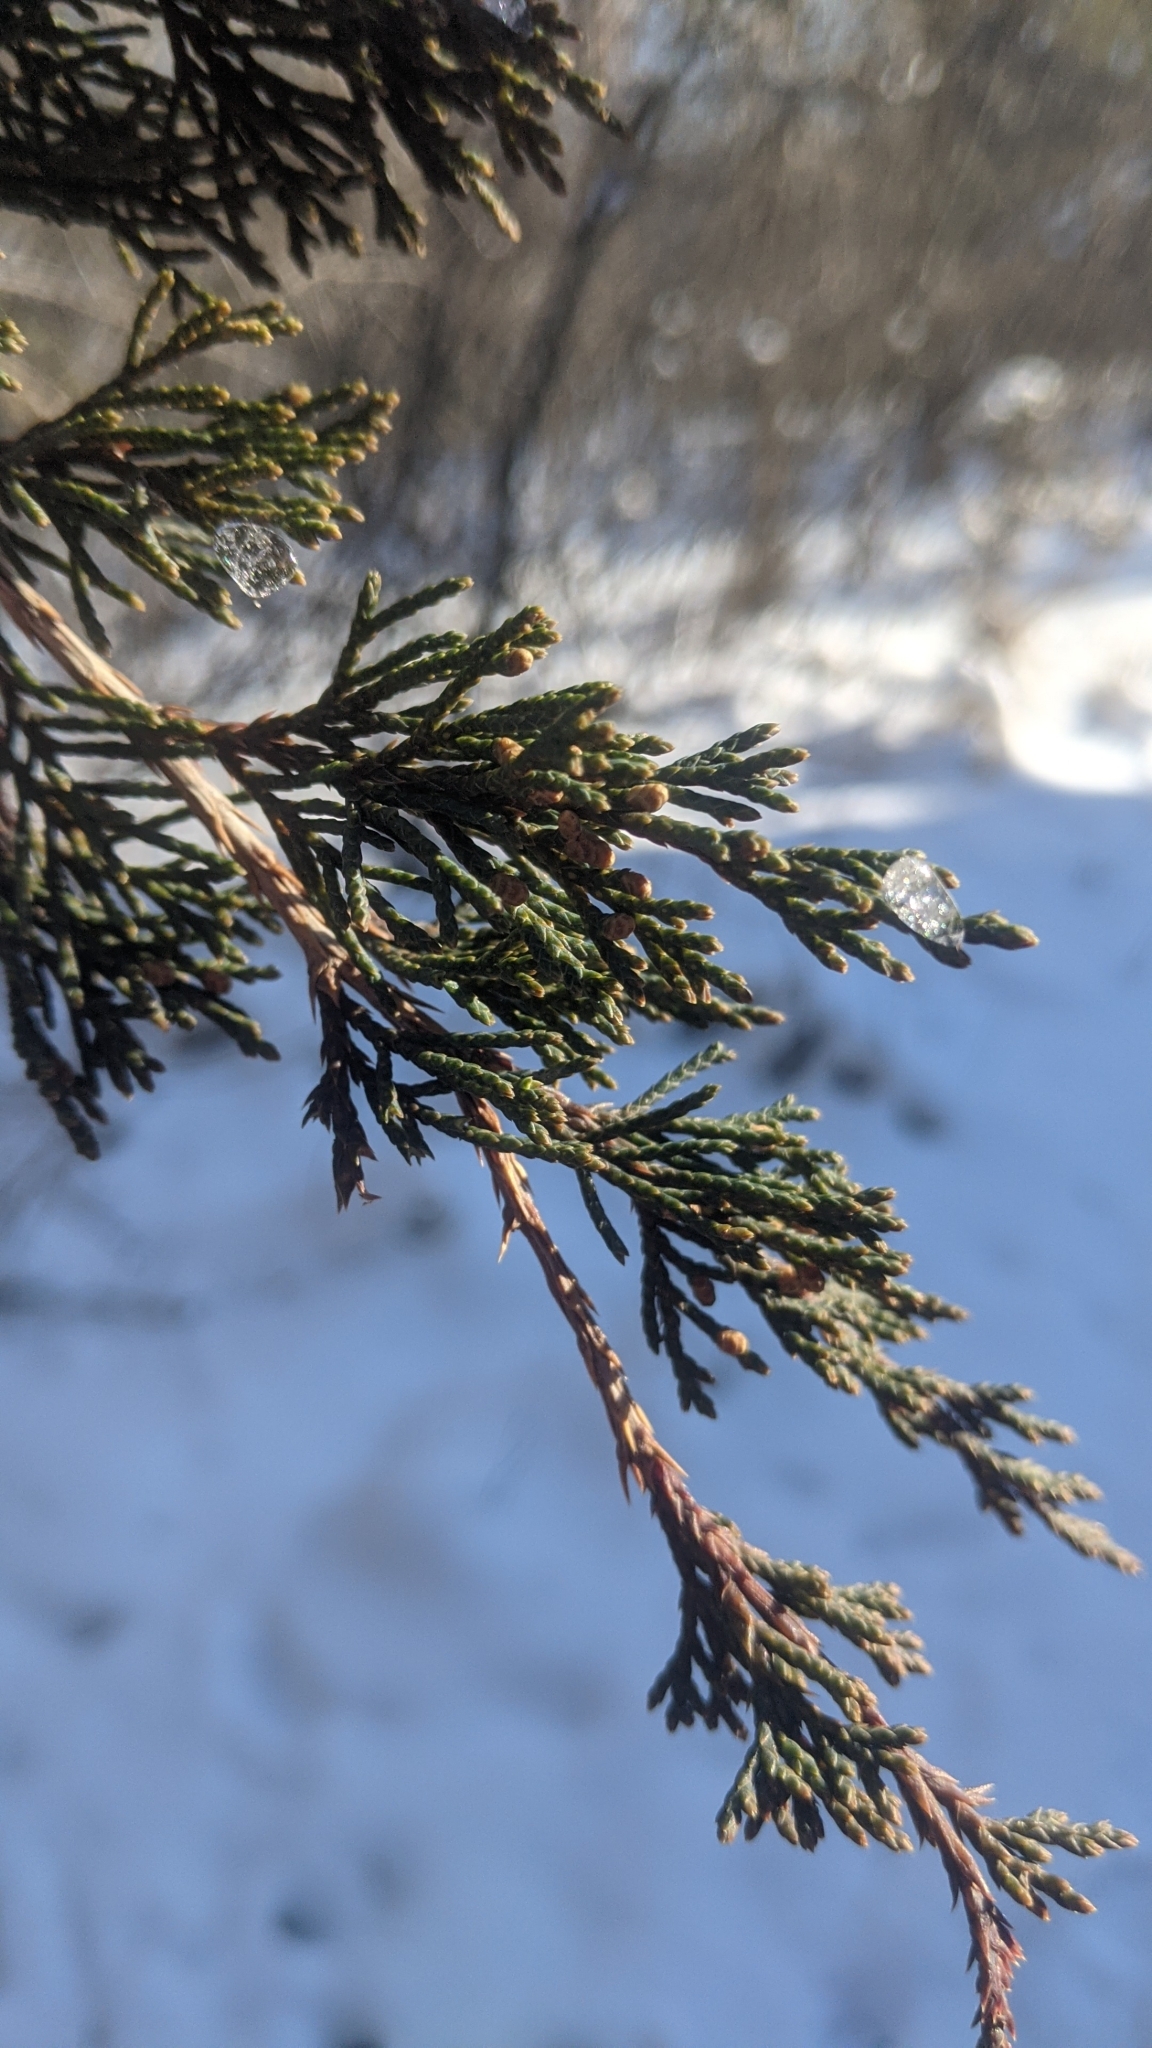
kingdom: Plantae
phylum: Tracheophyta
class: Pinopsida
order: Pinales
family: Cupressaceae
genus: Juniperus
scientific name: Juniperus virginiana
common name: Red juniper
